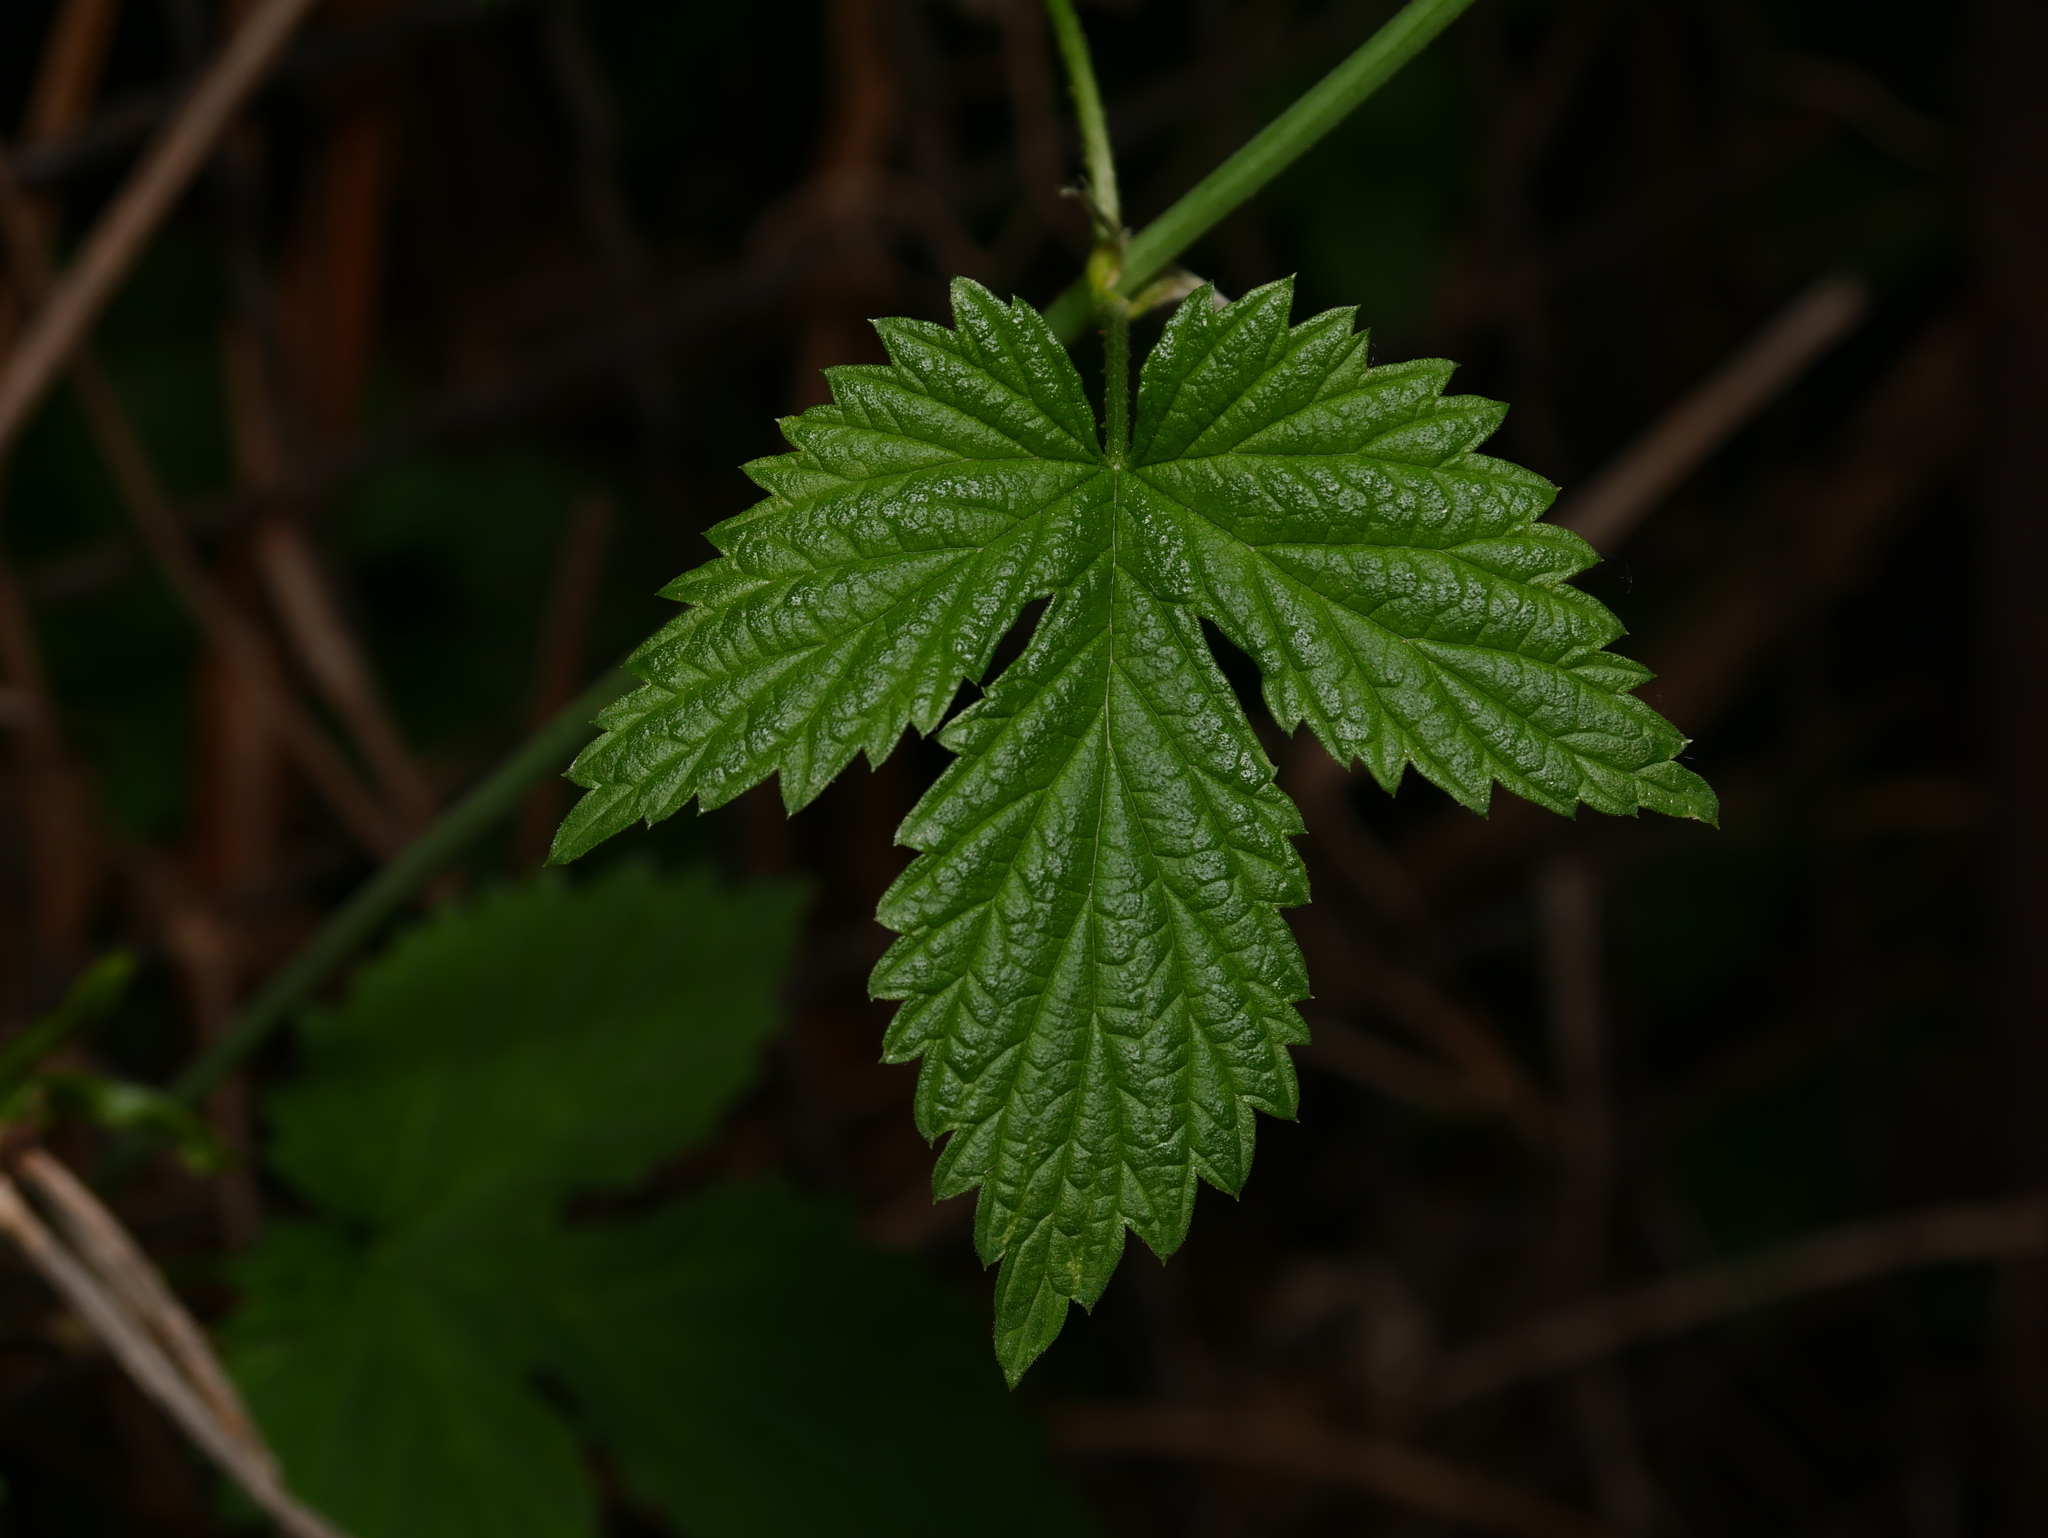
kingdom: Plantae
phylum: Tracheophyta
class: Magnoliopsida
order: Rosales
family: Cannabaceae
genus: Humulus
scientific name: Humulus lupulus
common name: Hop
